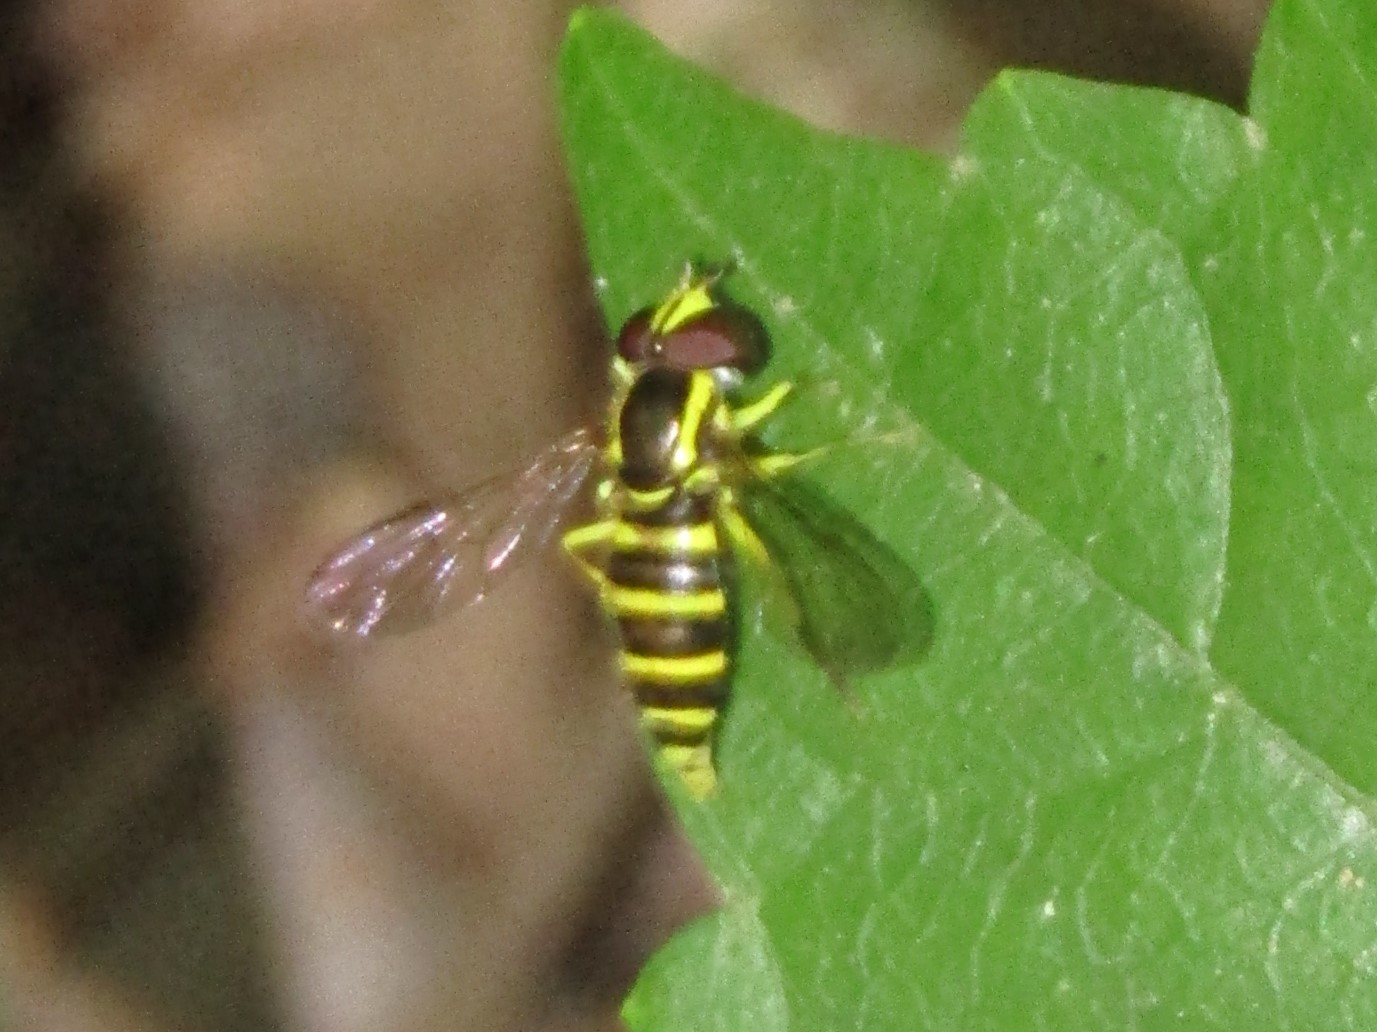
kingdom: Animalia
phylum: Arthropoda
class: Insecta
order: Diptera
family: Syrphidae
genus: Philhelius
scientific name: Philhelius flavipes
